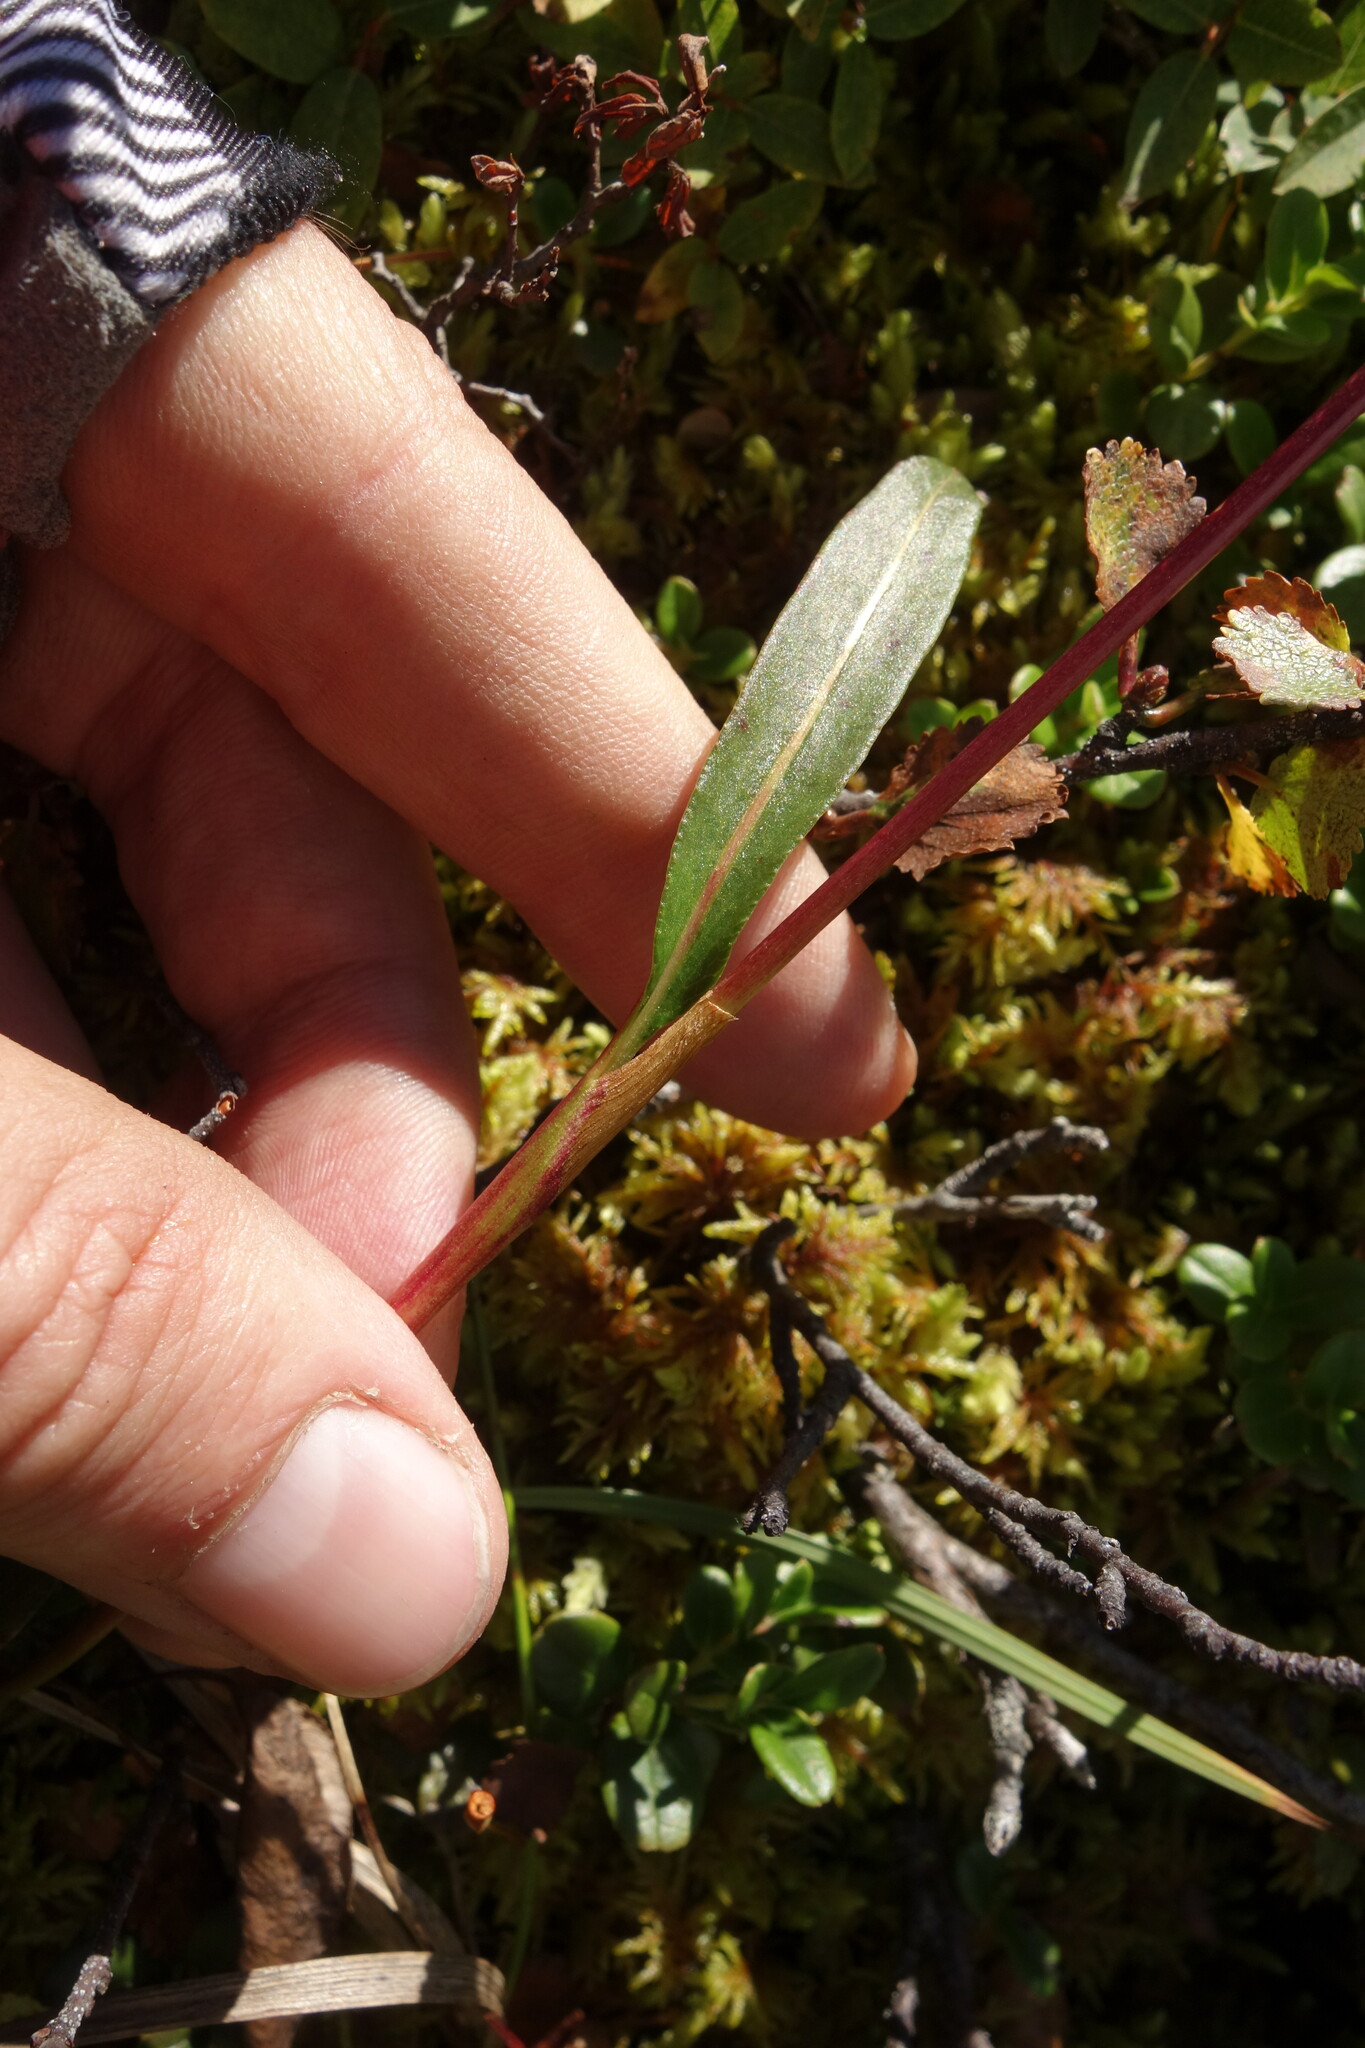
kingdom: Plantae
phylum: Tracheophyta
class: Magnoliopsida
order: Caryophyllales
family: Polygonaceae
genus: Bistorta
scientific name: Bistorta vivipara
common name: Alpine bistort
